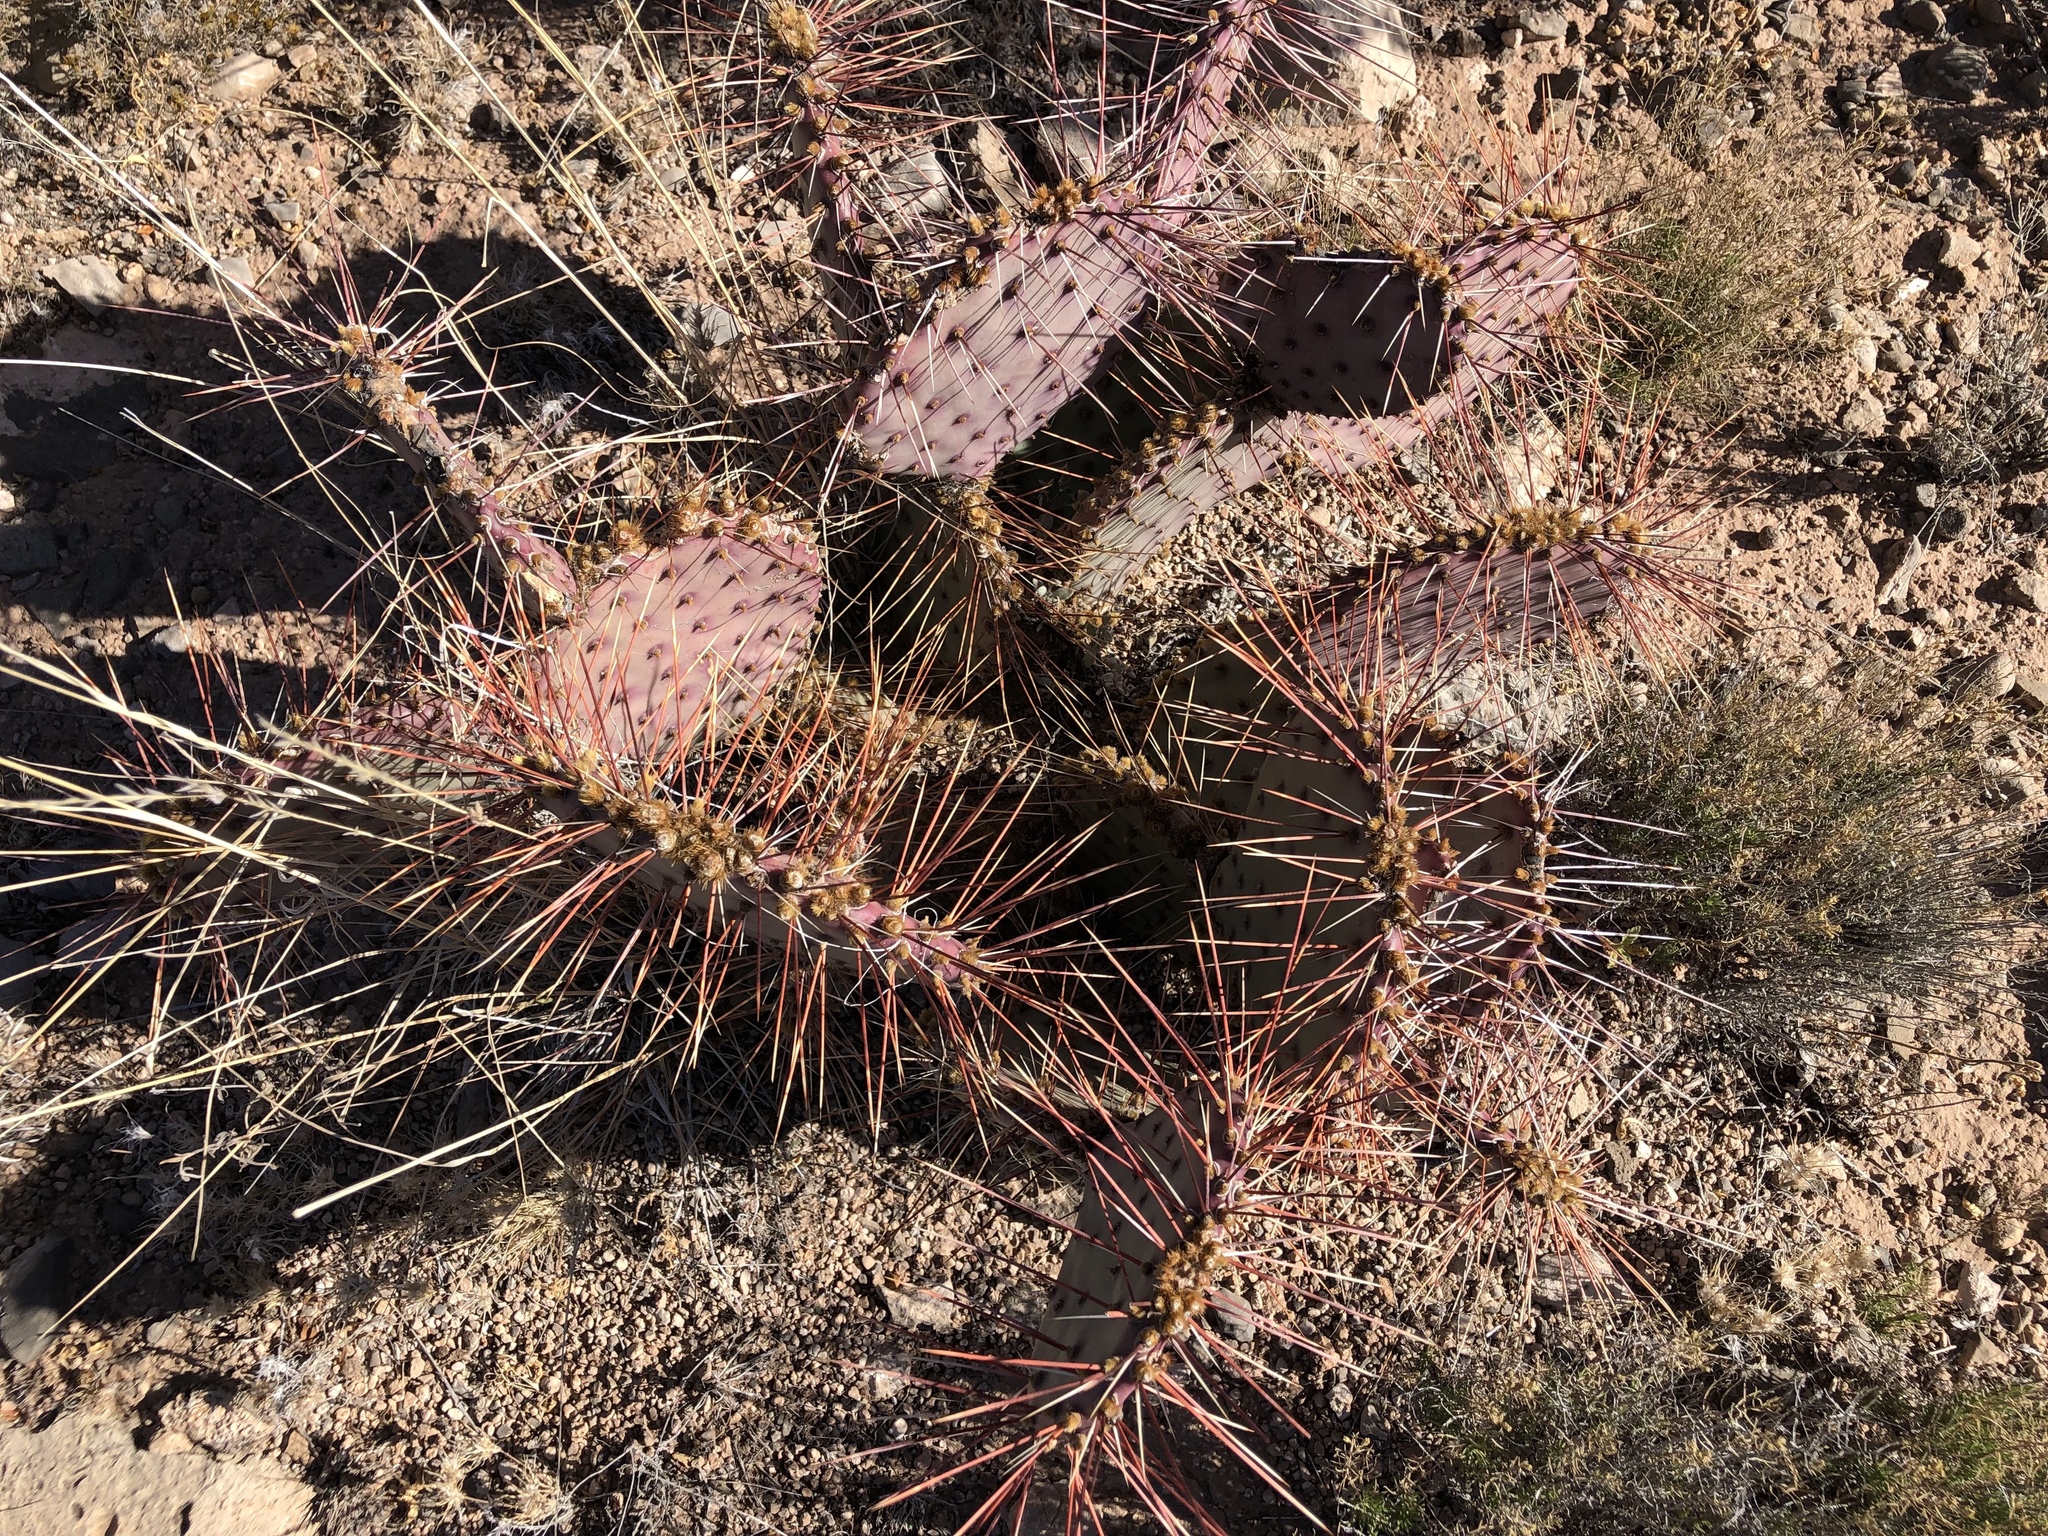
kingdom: Plantae
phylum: Tracheophyta
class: Magnoliopsida
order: Caryophyllales
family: Cactaceae
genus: Opuntia
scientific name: Opuntia macrocentra
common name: Purple prickly-pear
